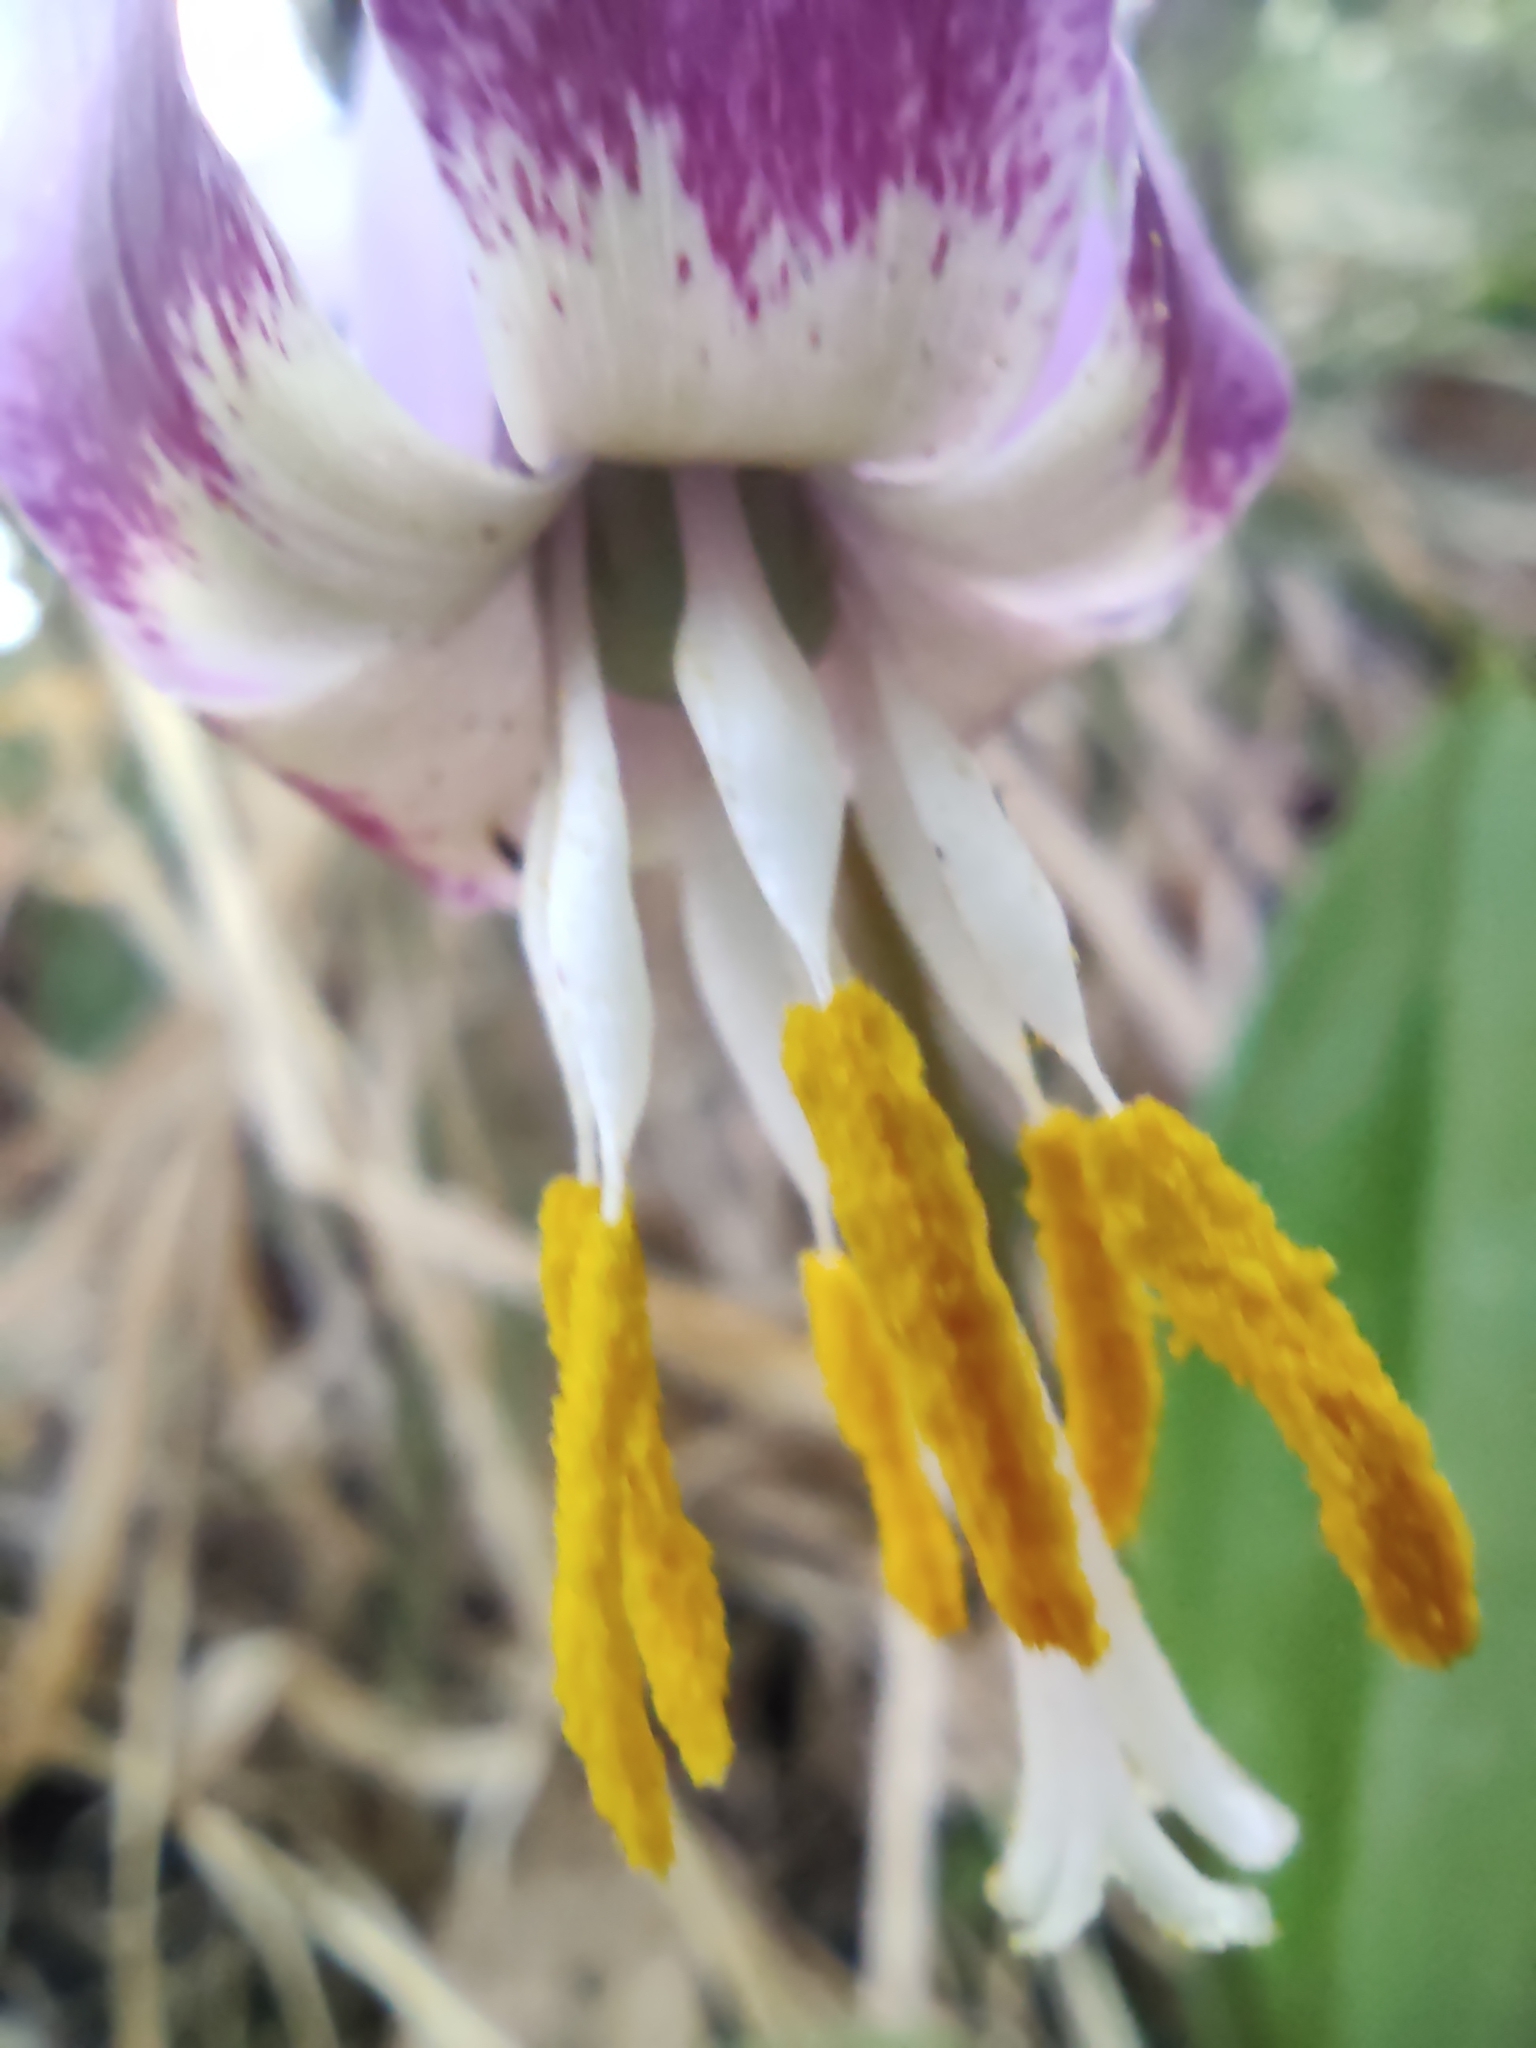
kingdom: Plantae
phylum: Tracheophyta
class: Liliopsida
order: Liliales
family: Liliaceae
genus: Erythronium
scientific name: Erythronium sibiricum
